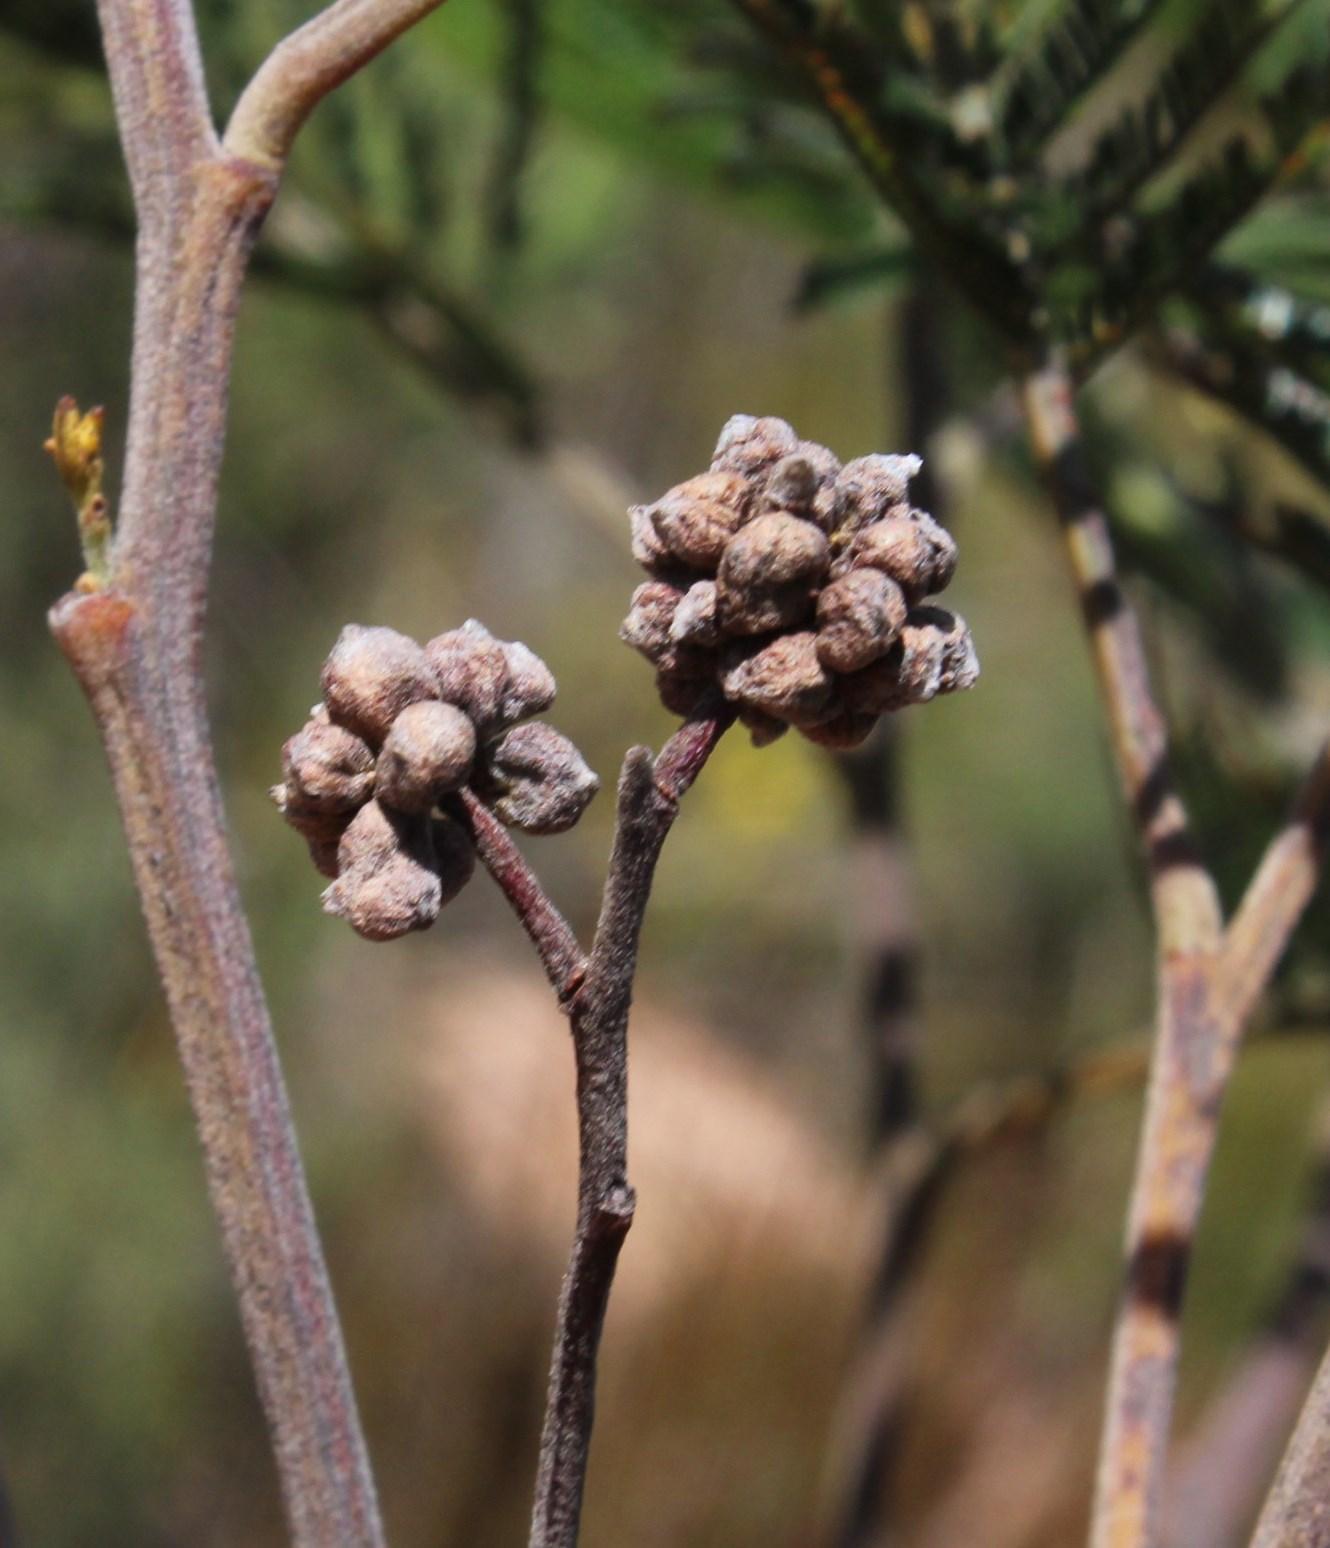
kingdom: Animalia
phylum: Arthropoda
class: Insecta
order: Diptera
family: Cecidomyiidae
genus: Dasineura
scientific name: Dasineura rubiformis
